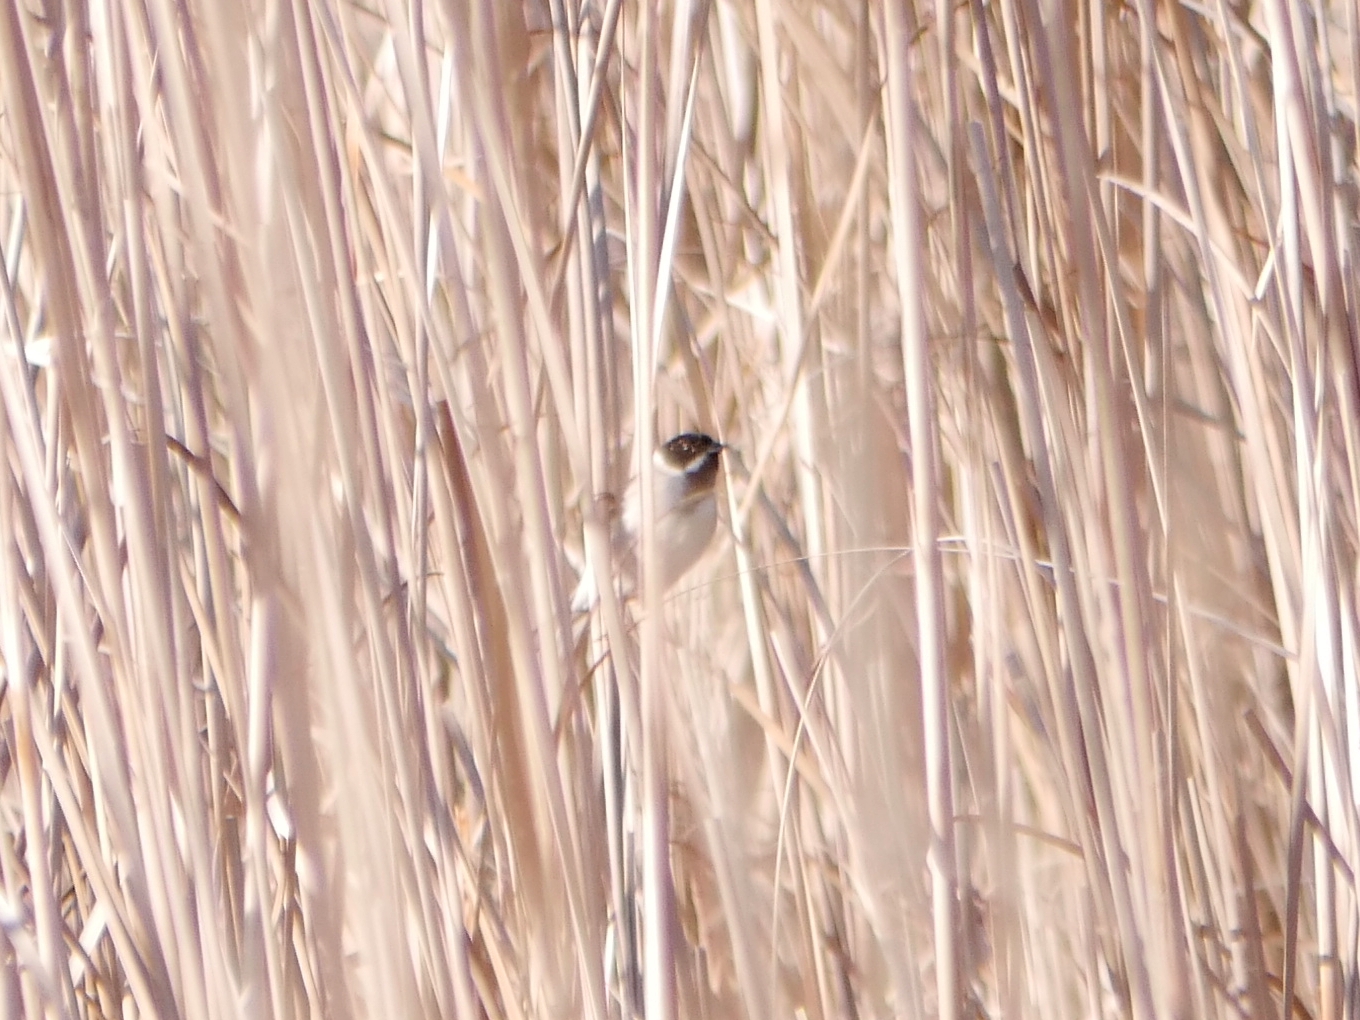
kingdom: Animalia
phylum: Chordata
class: Aves
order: Passeriformes
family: Emberizidae
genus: Emberiza
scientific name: Emberiza schoeniclus
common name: Reed bunting
